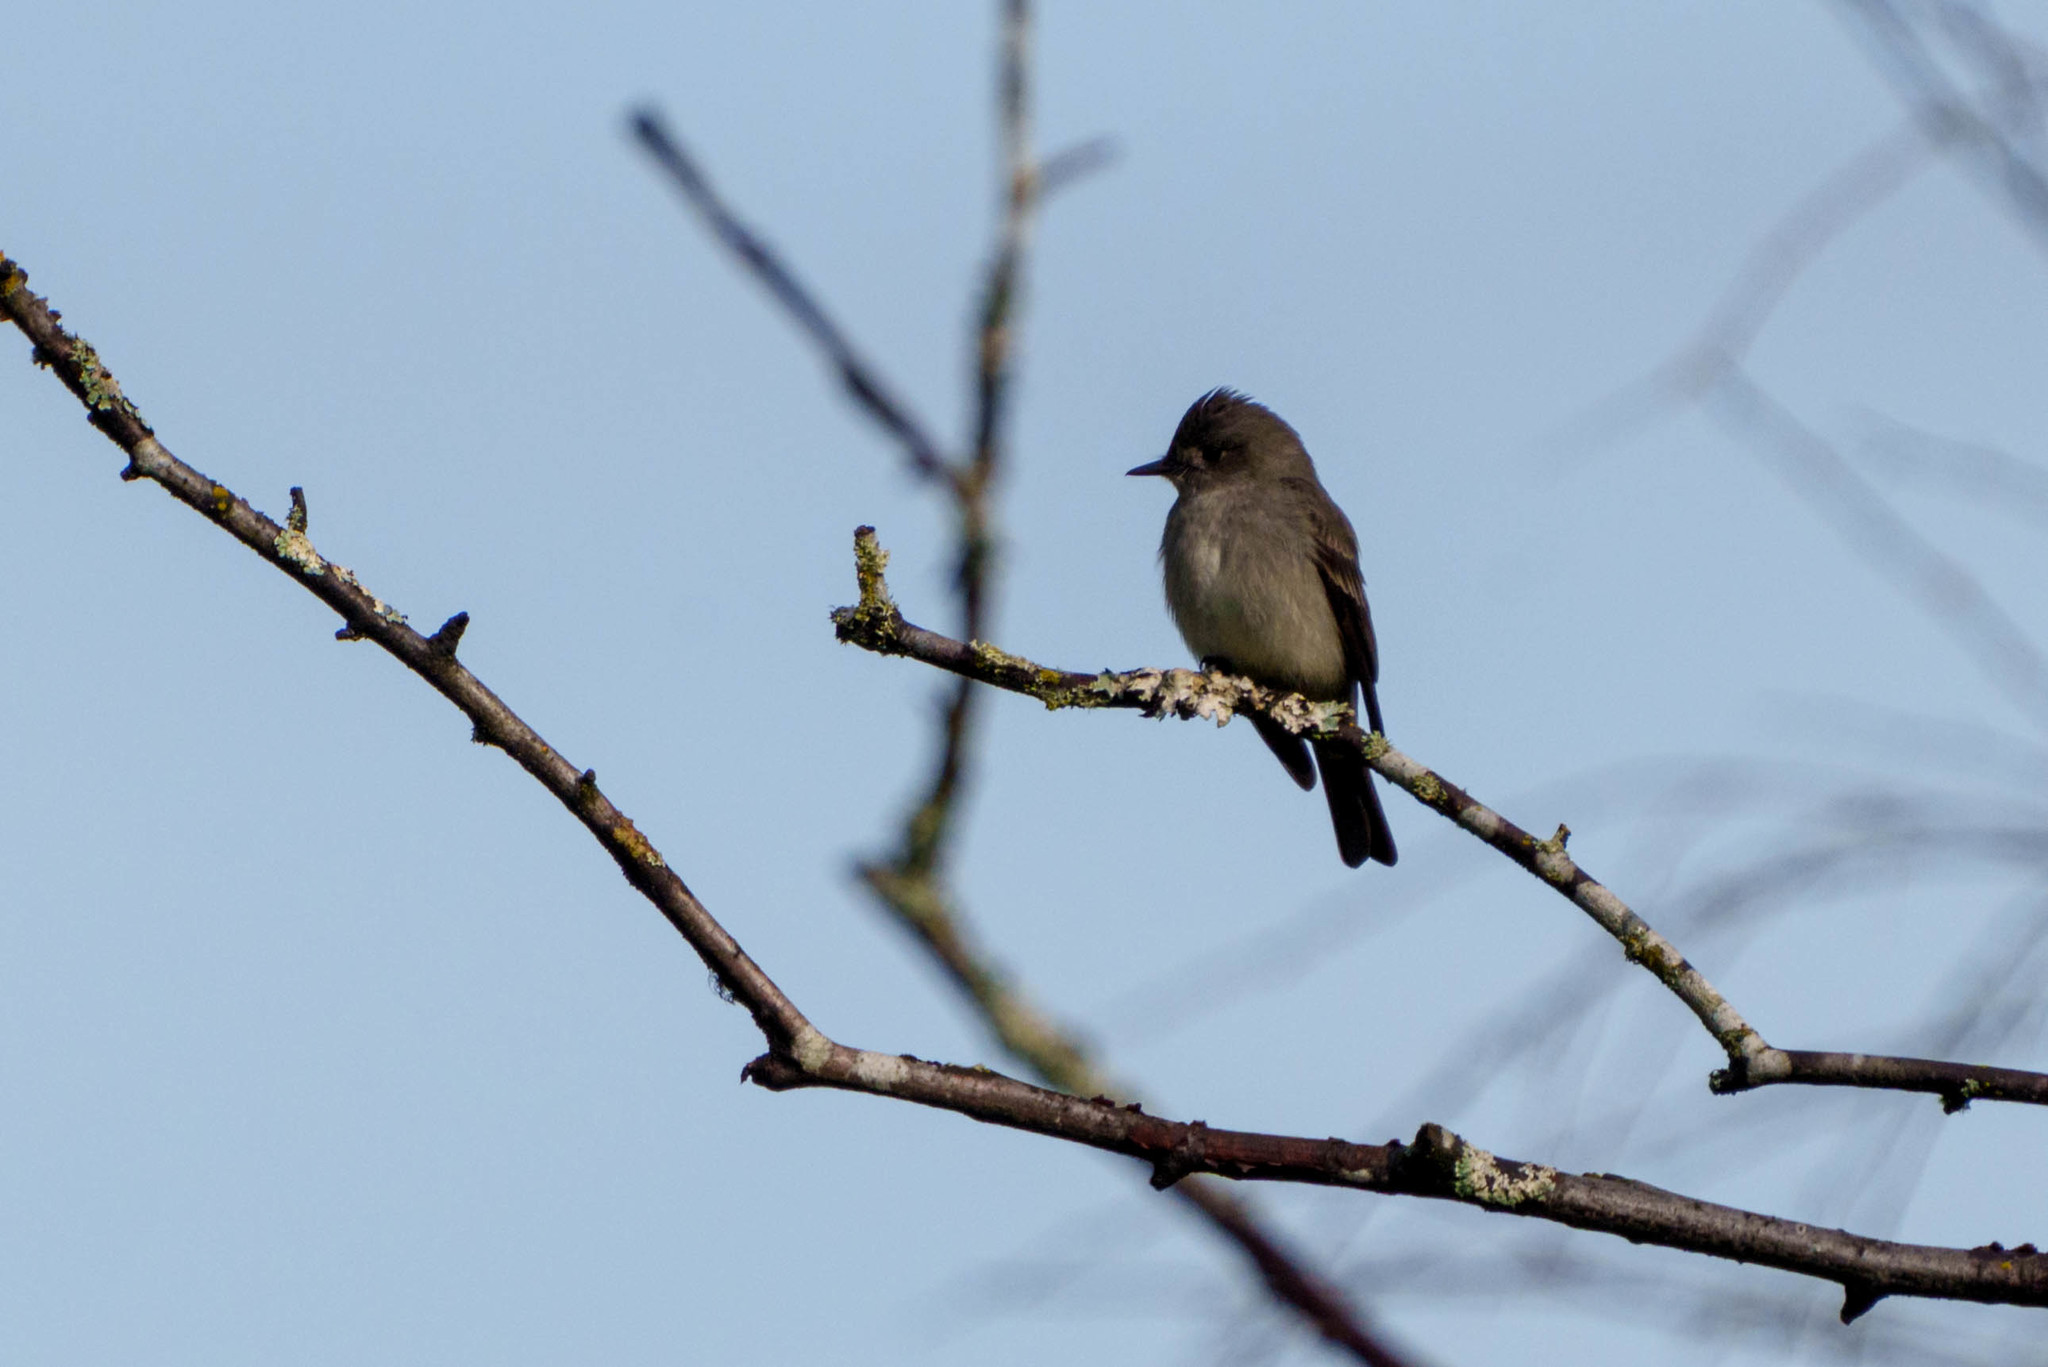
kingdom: Animalia
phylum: Chordata
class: Aves
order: Passeriformes
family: Tyrannidae
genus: Contopus
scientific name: Contopus sordidulus
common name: Western wood-pewee
